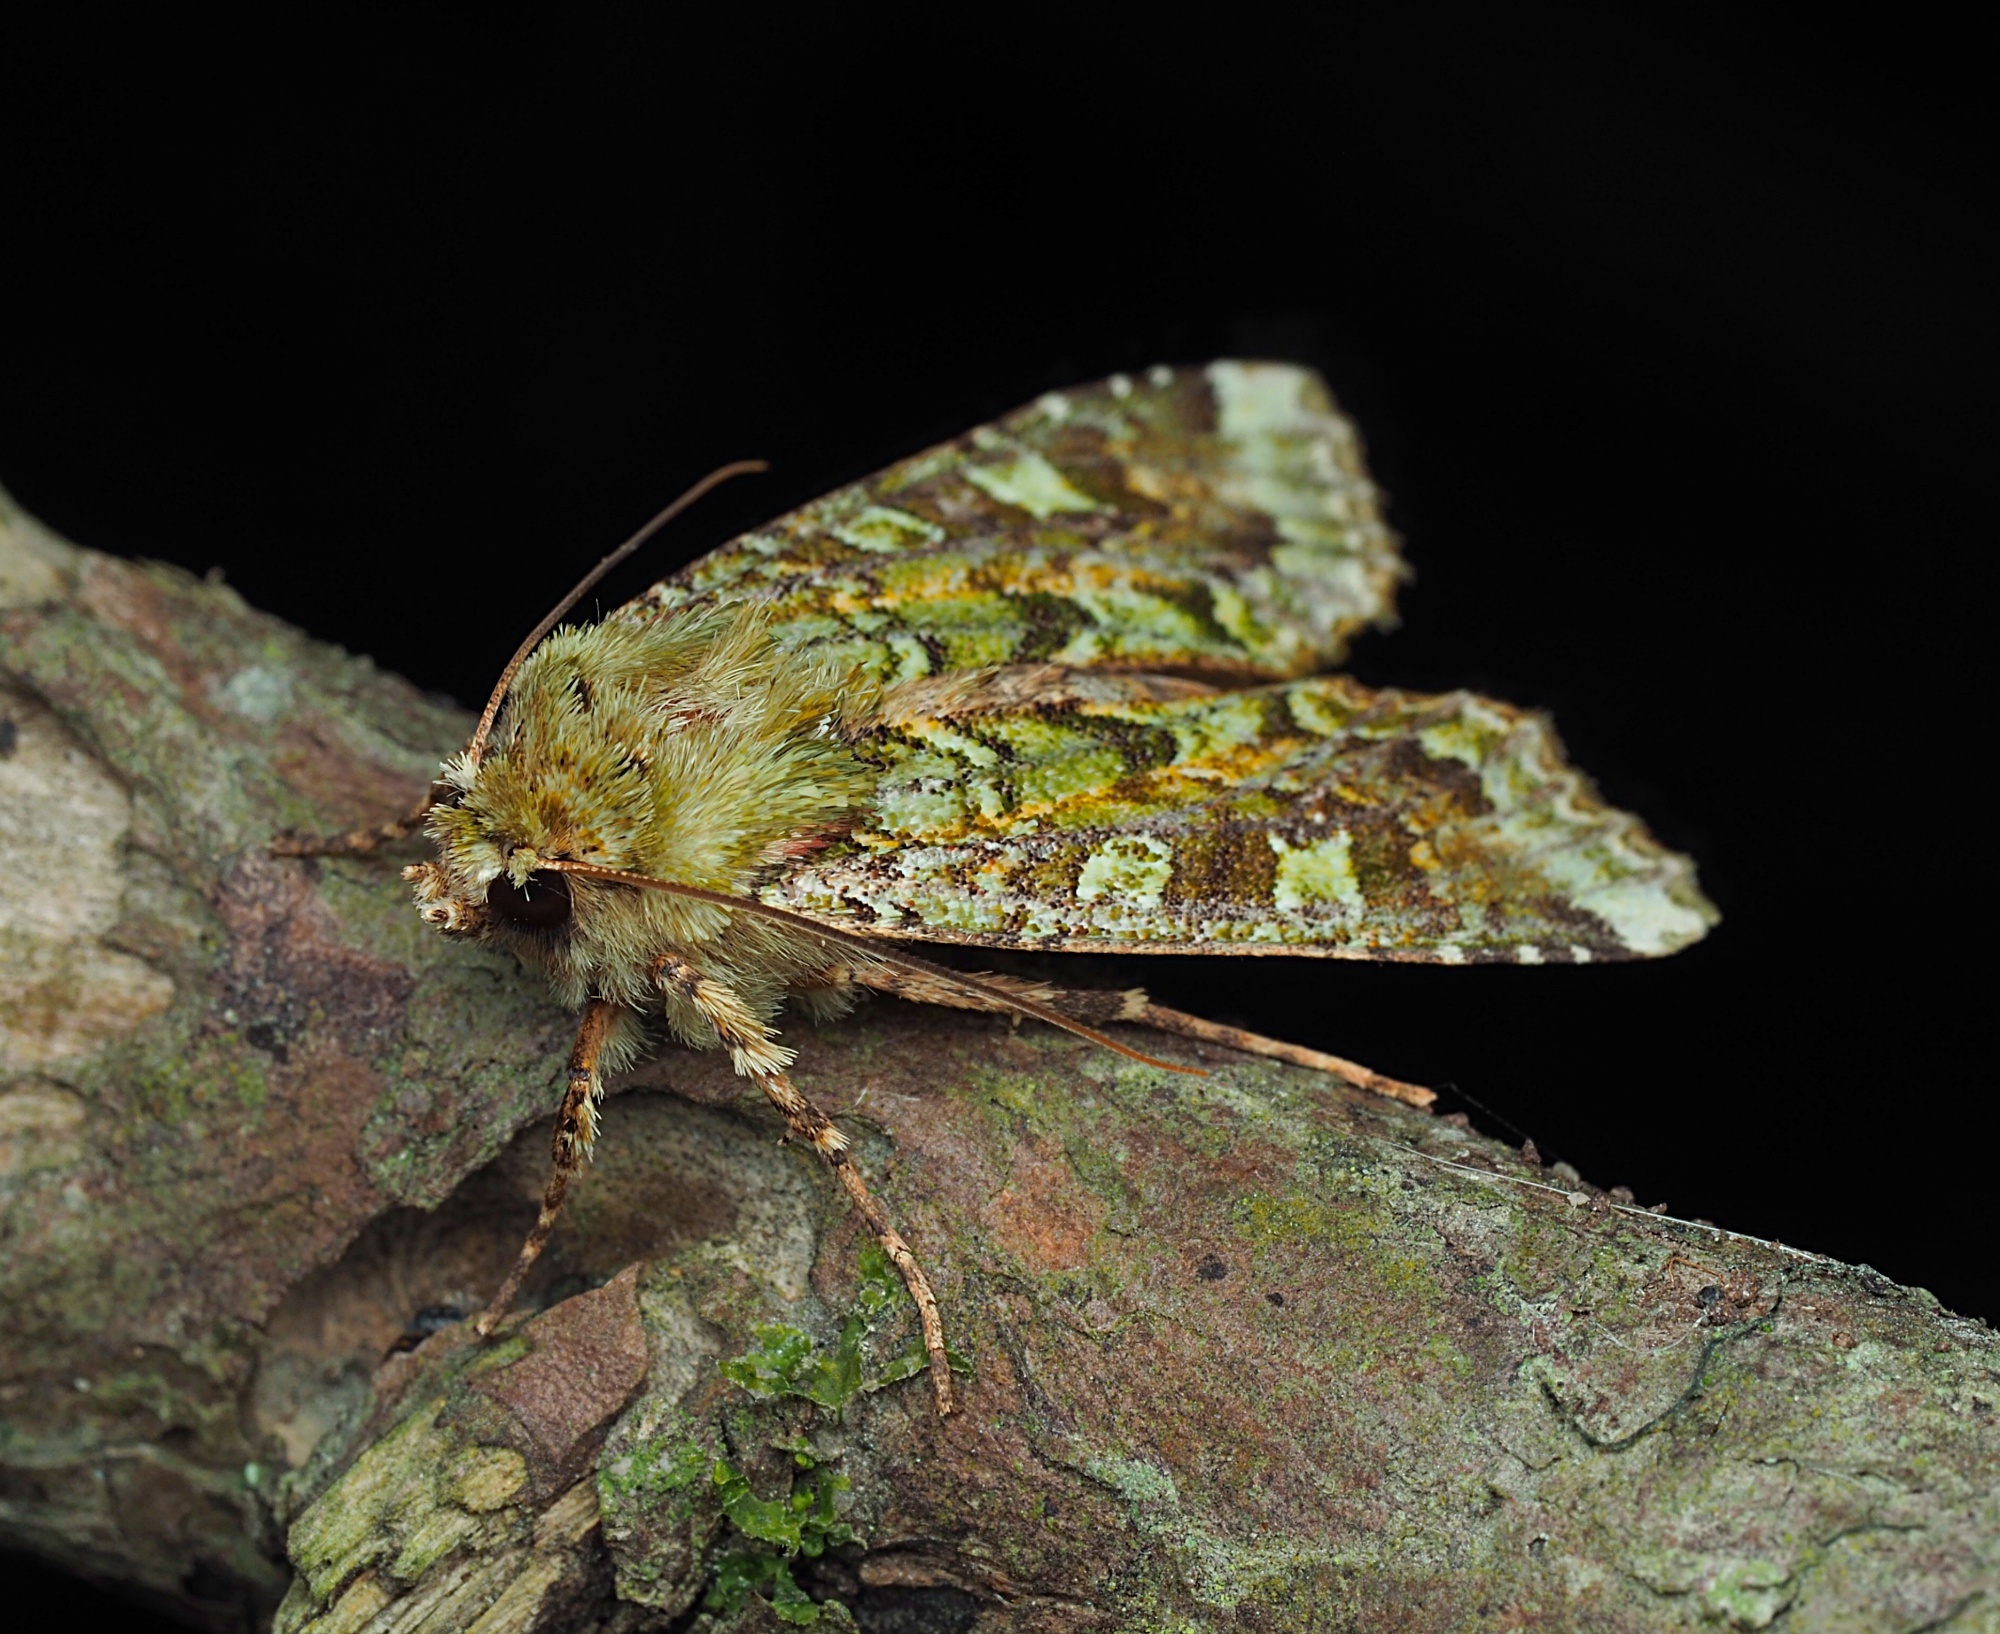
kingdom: Animalia
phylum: Arthropoda
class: Insecta
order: Lepidoptera
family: Noctuidae
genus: Feredayia
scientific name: Feredayia grammosa
